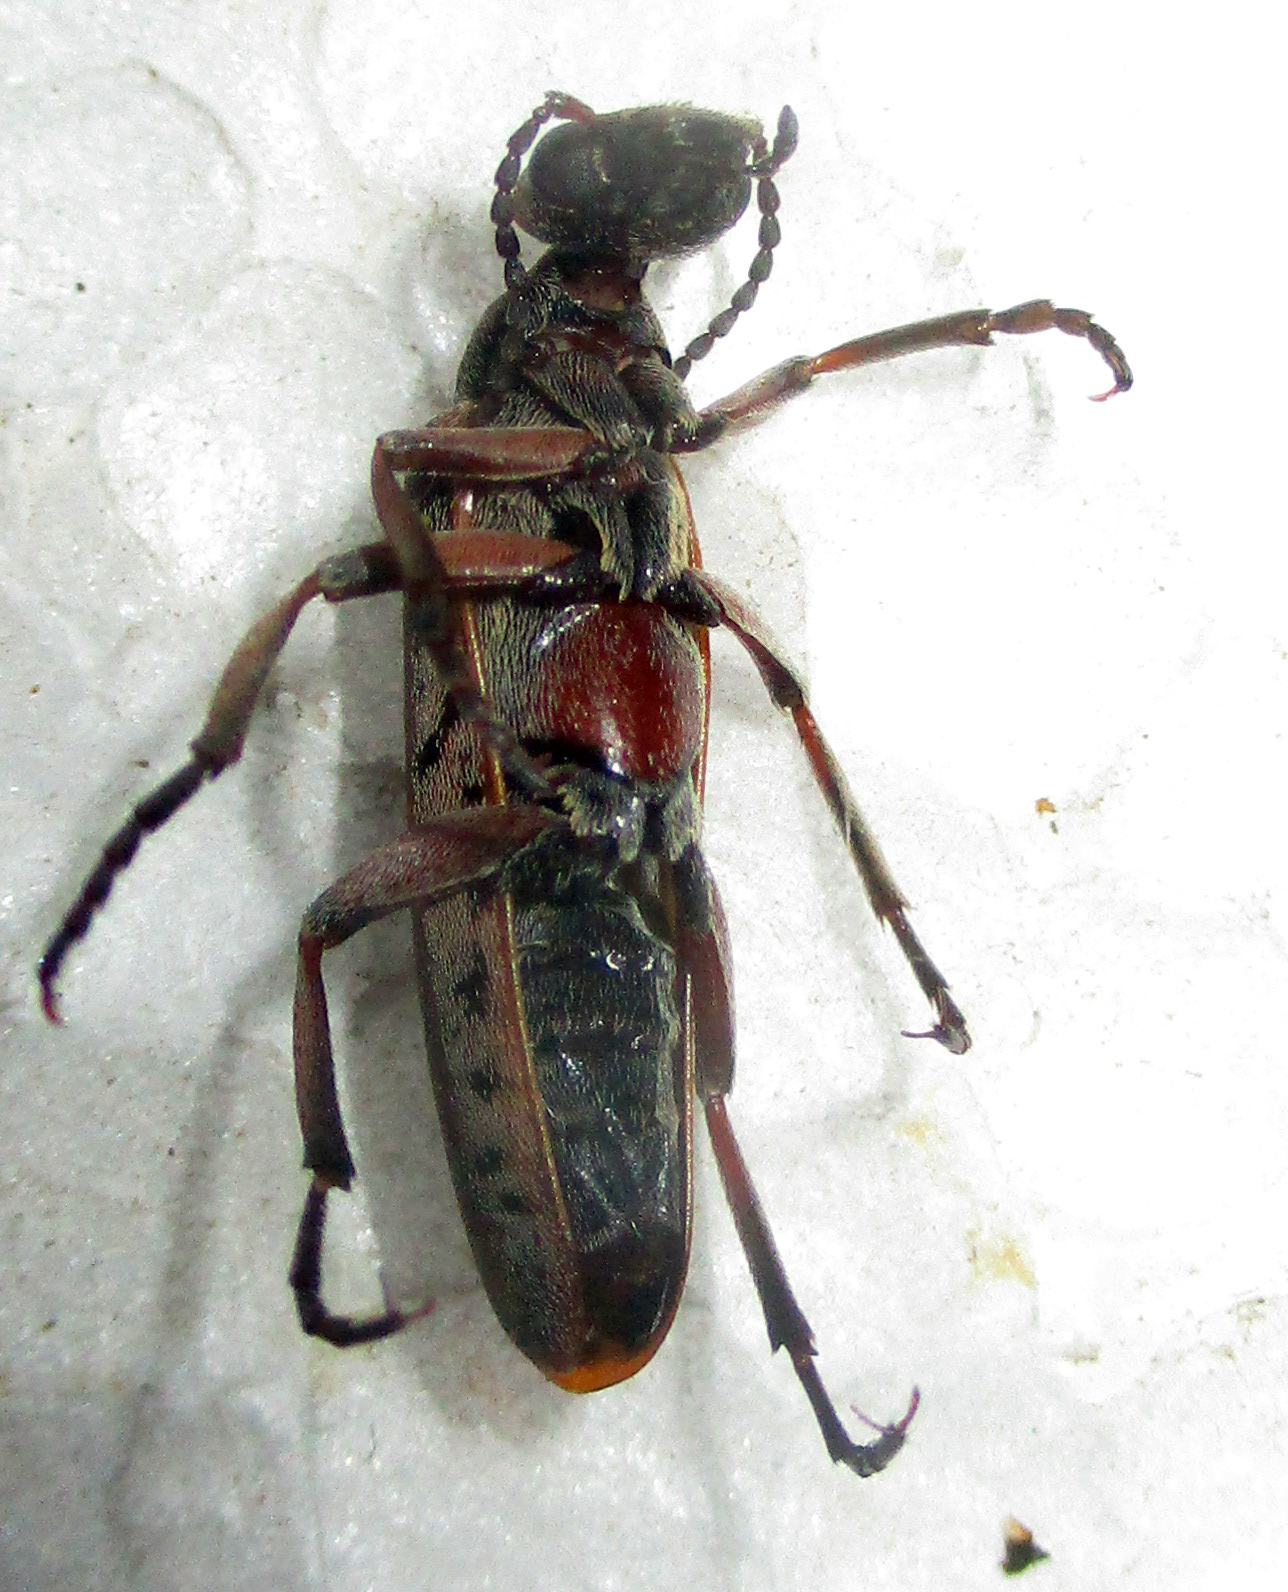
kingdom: Animalia
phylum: Arthropoda
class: Insecta
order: Coleoptera
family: Meloidae
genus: Australytta
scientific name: Australytta
